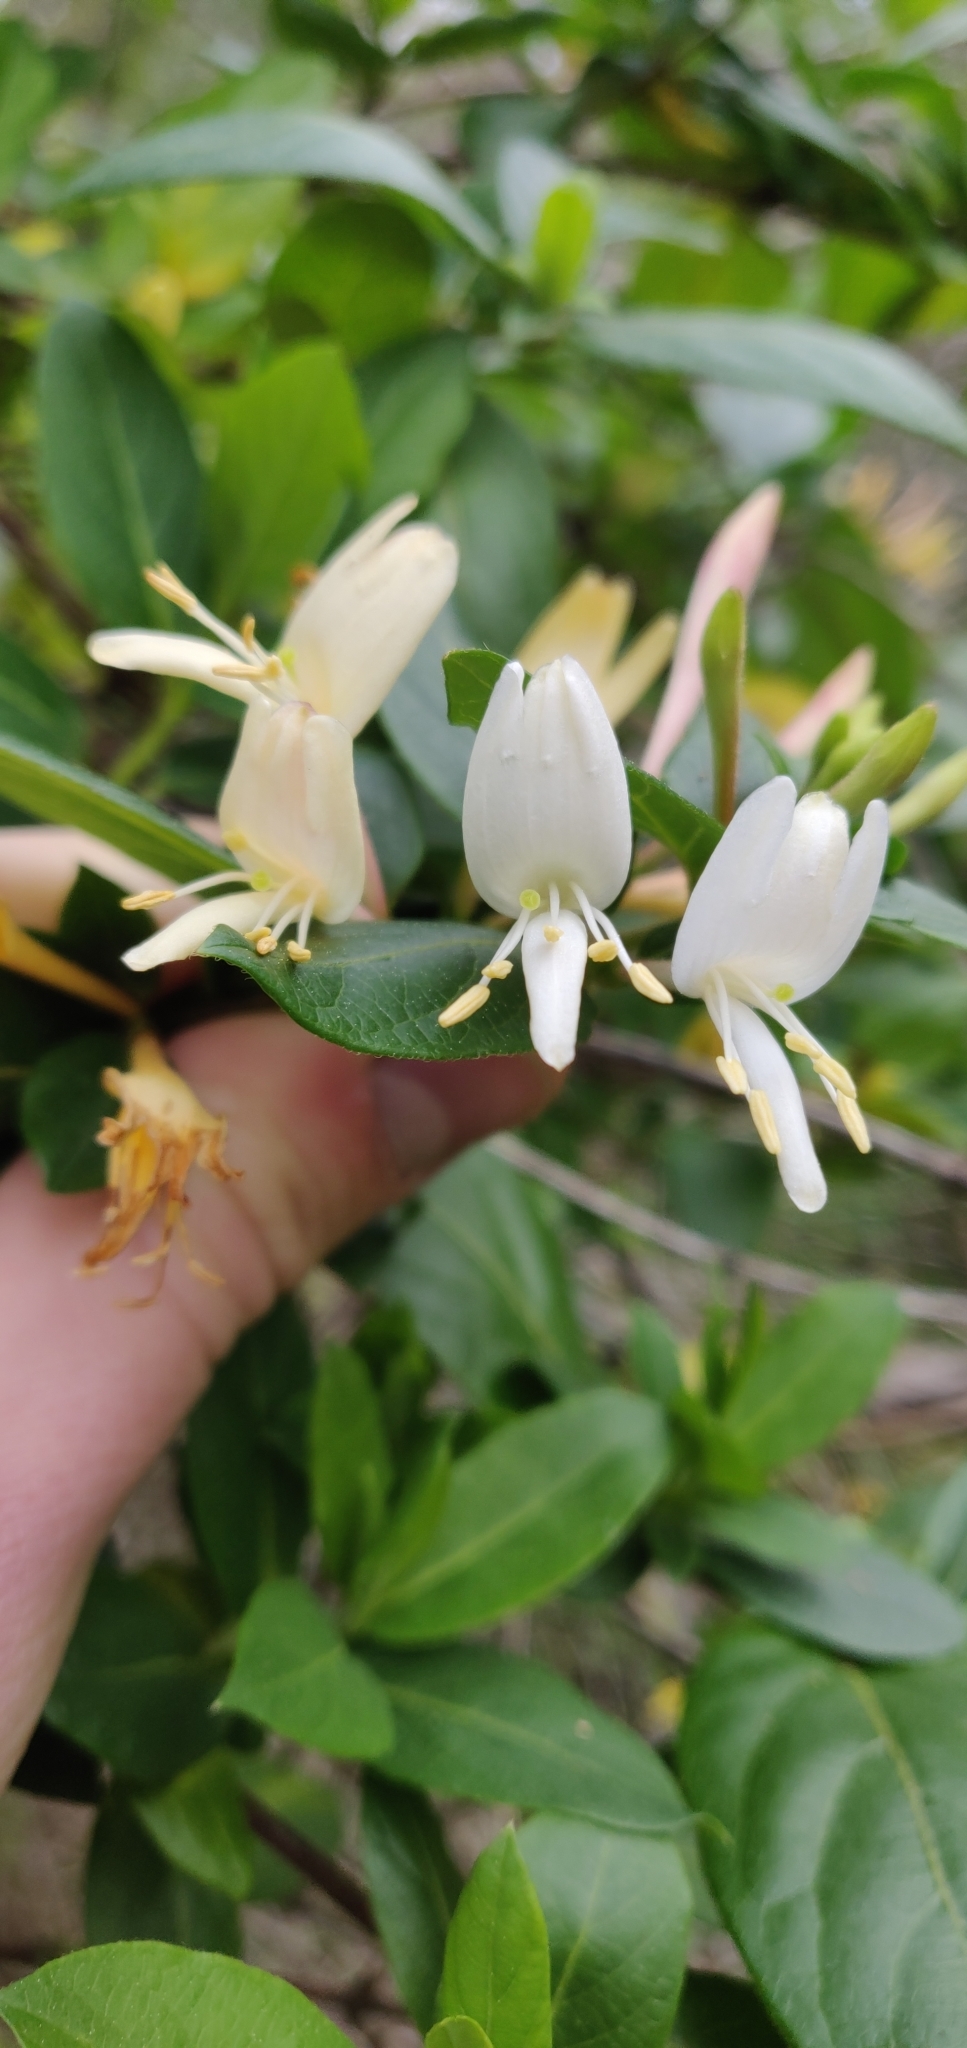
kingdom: Plantae
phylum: Tracheophyta
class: Magnoliopsida
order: Dipsacales
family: Caprifoliaceae
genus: Lonicera
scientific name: Lonicera japonica
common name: Japanese honeysuckle
